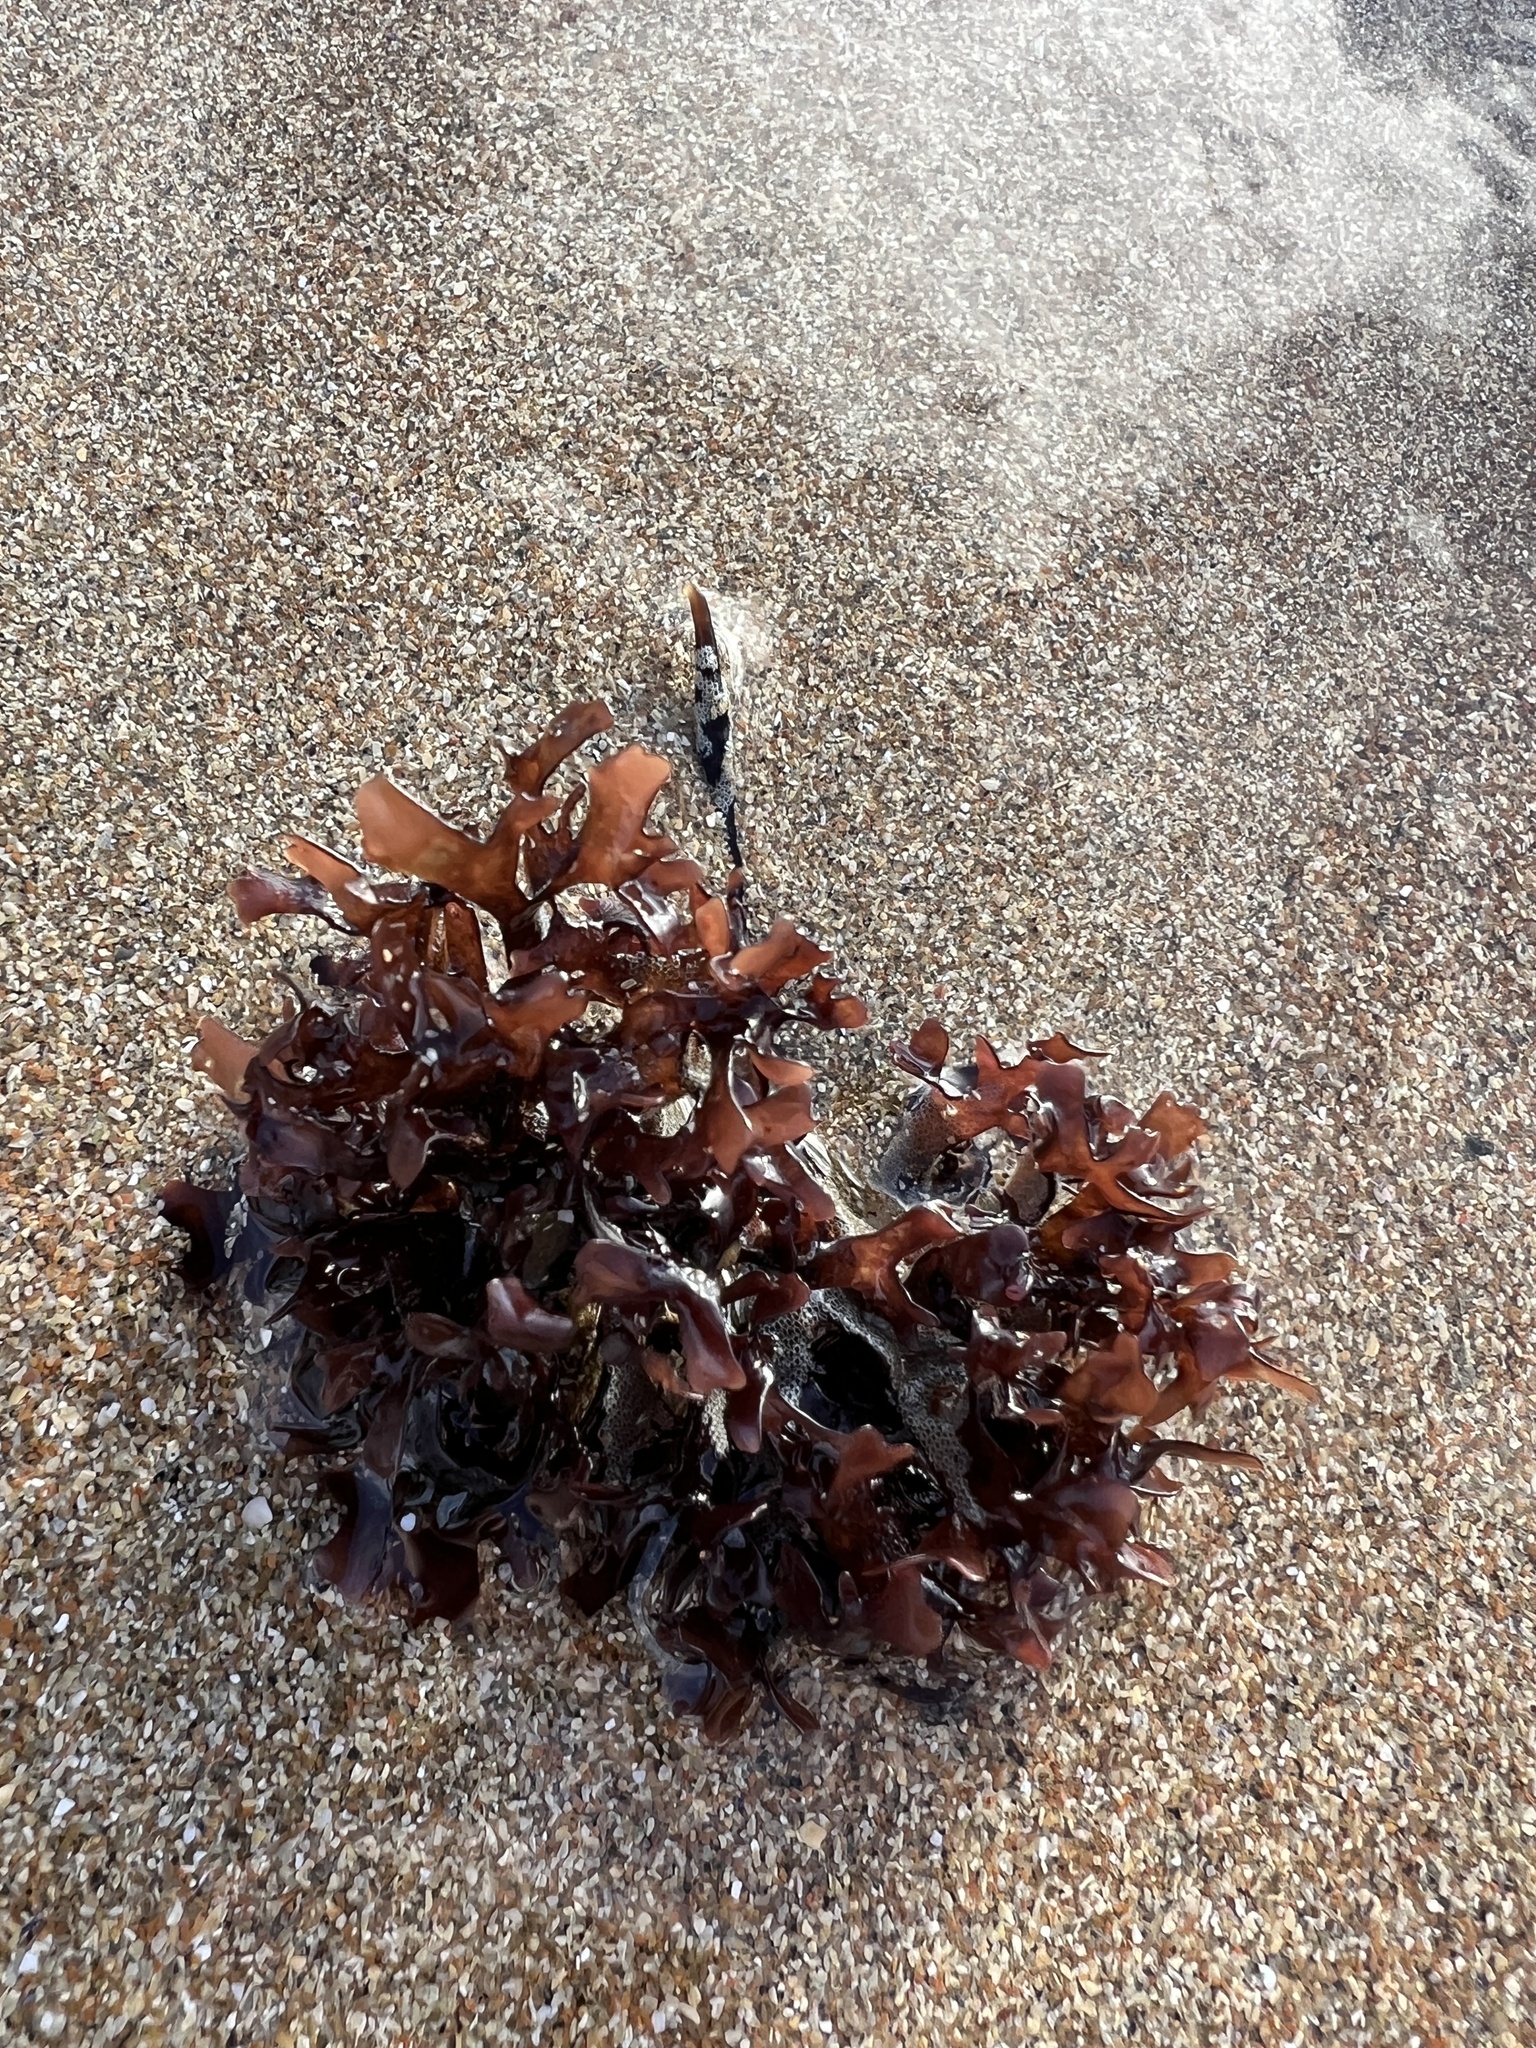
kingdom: Plantae
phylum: Rhodophyta
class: Florideophyceae
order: Gigartinales
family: Gigartinaceae
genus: Chondrus
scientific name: Chondrus crispus
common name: Carrageen
